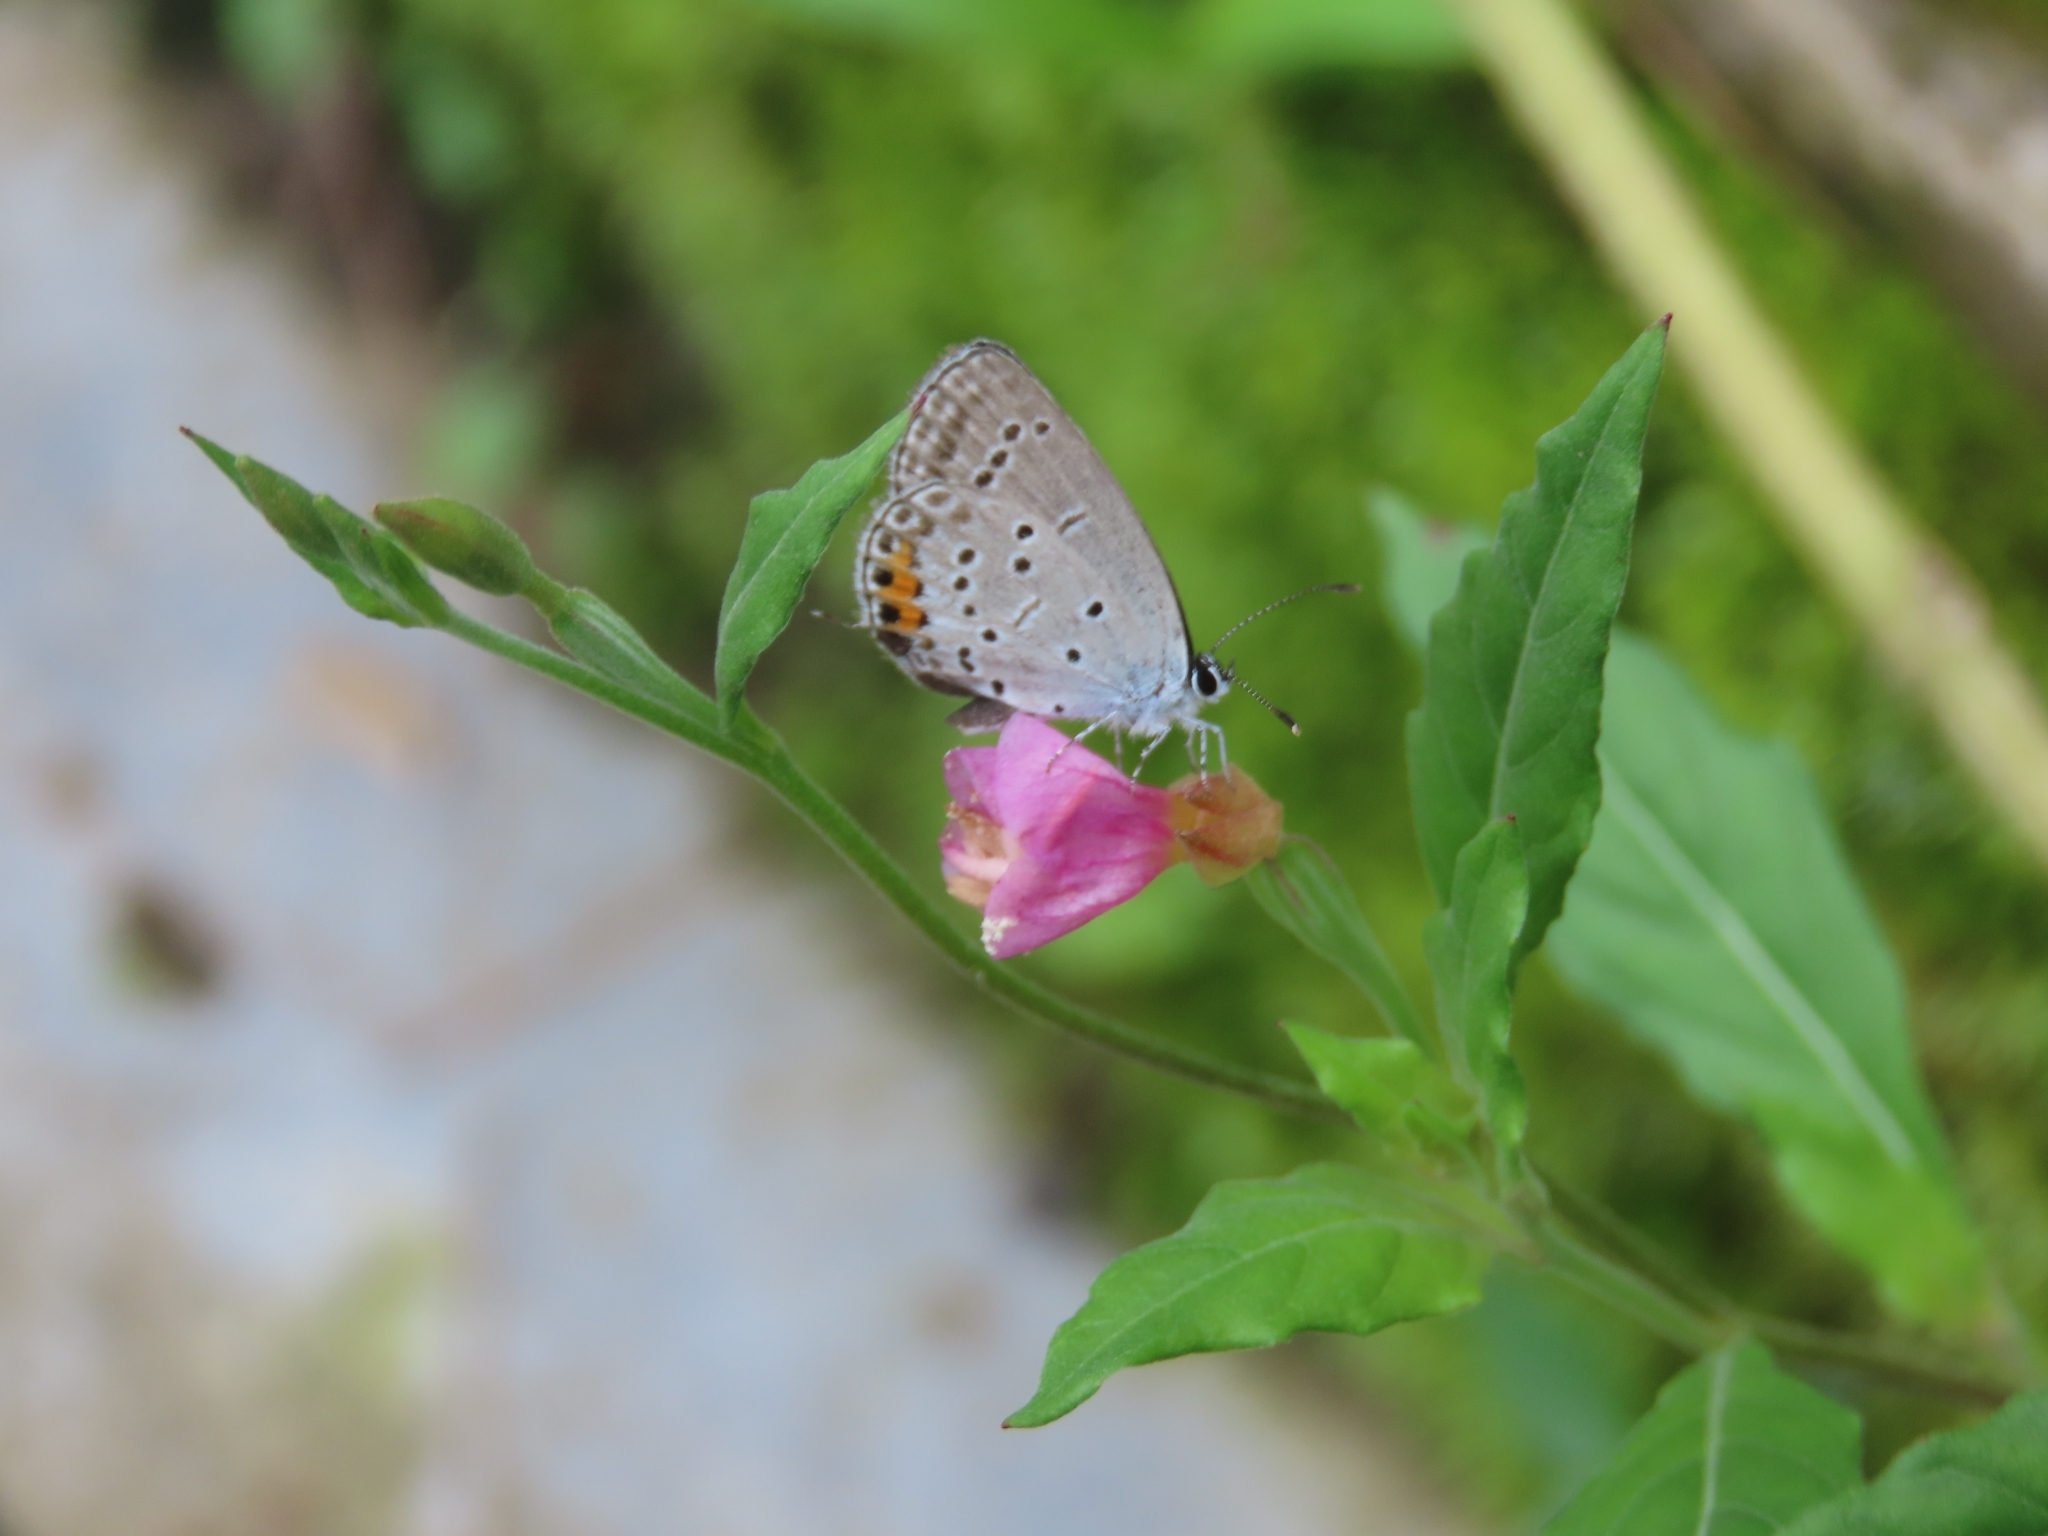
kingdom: Animalia
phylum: Arthropoda
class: Insecta
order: Lepidoptera
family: Lycaenidae
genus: Elkalyce
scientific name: Elkalyce argiades
